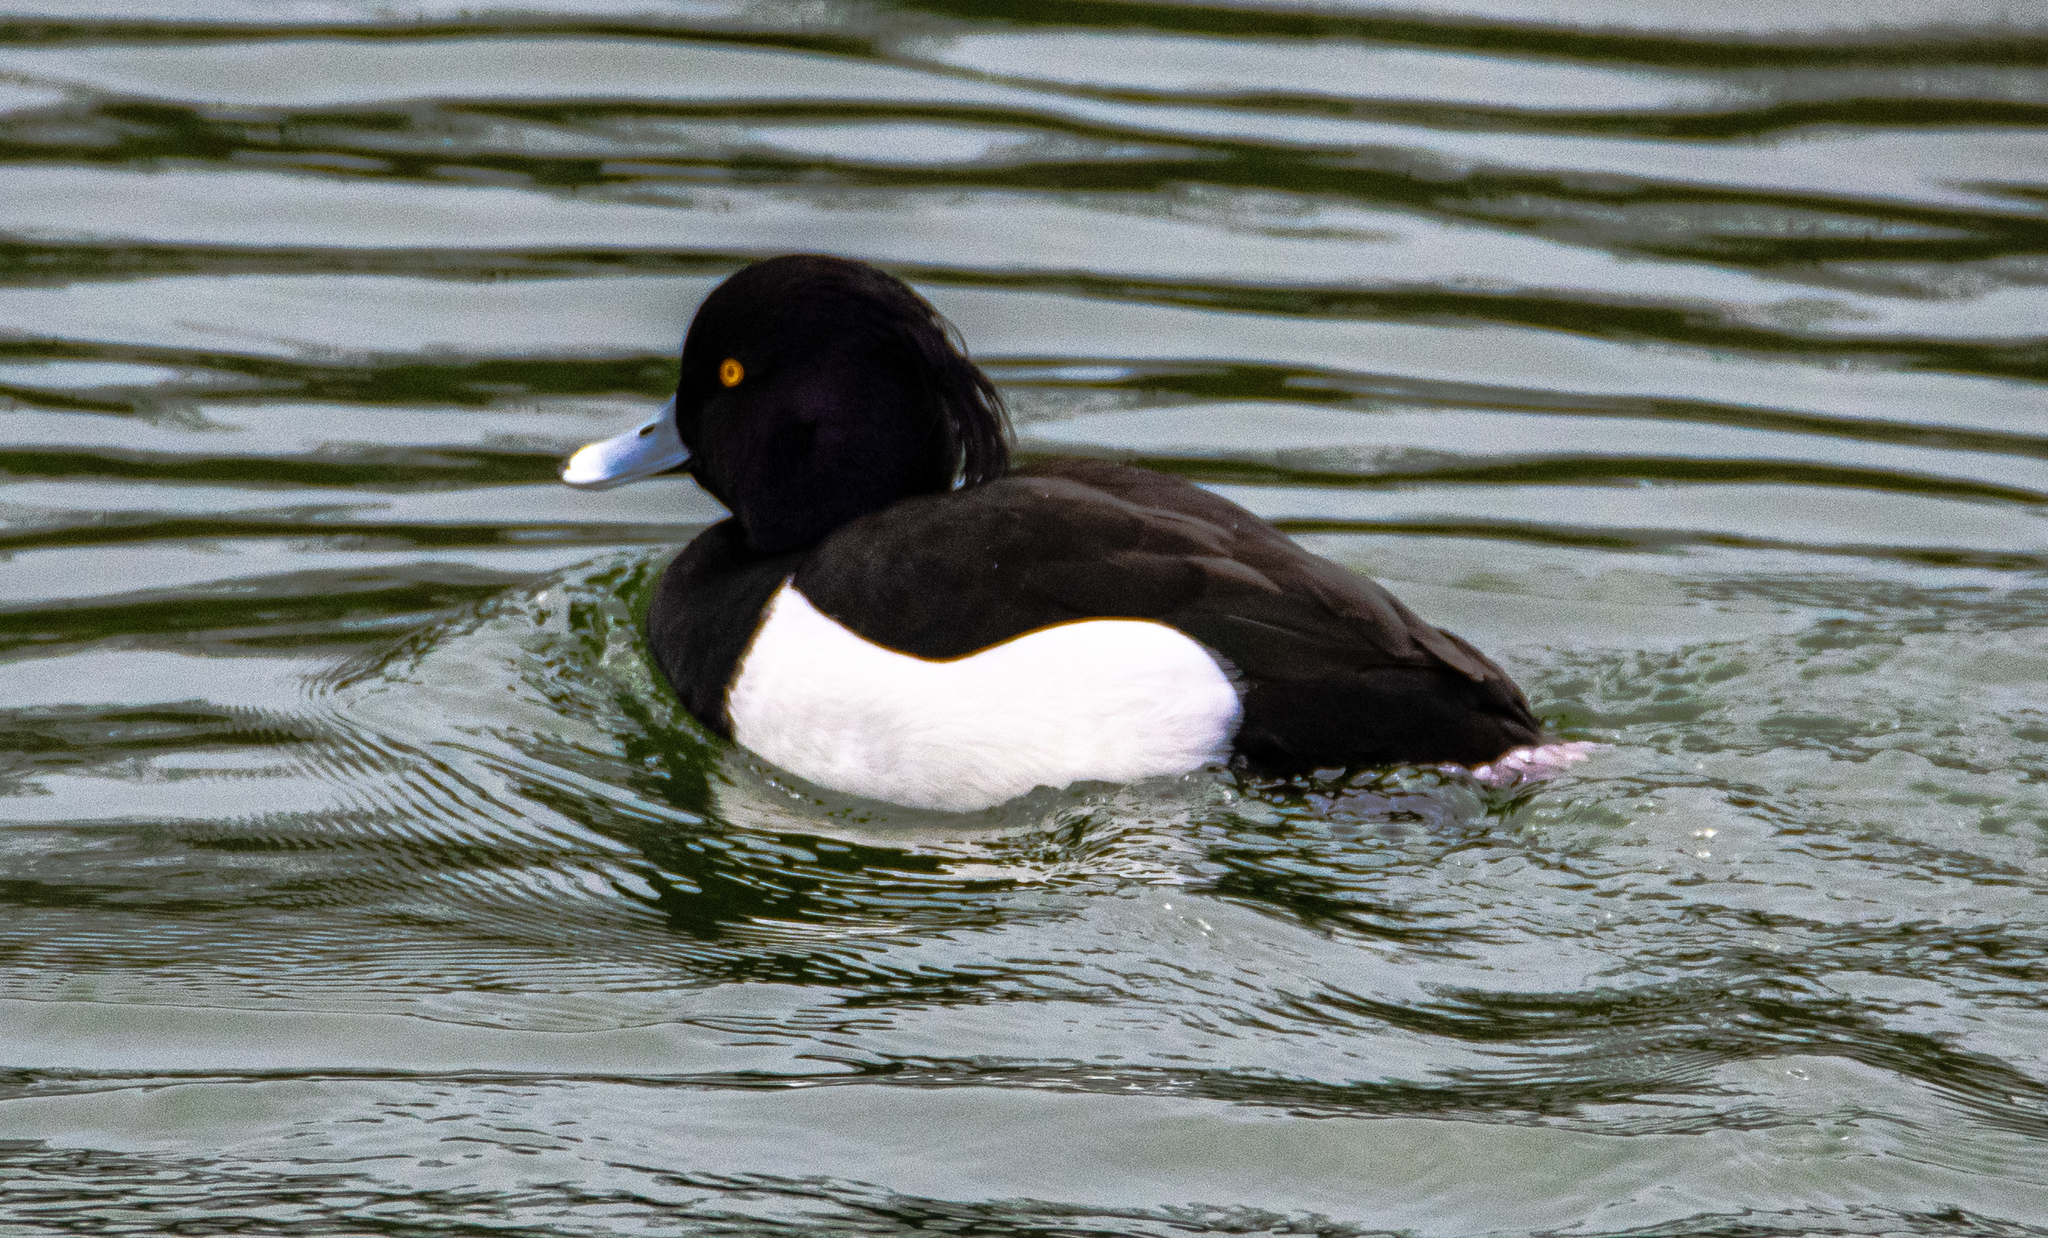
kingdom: Animalia
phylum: Chordata
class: Aves
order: Anseriformes
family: Anatidae
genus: Aythya
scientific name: Aythya fuligula
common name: Tufted duck
